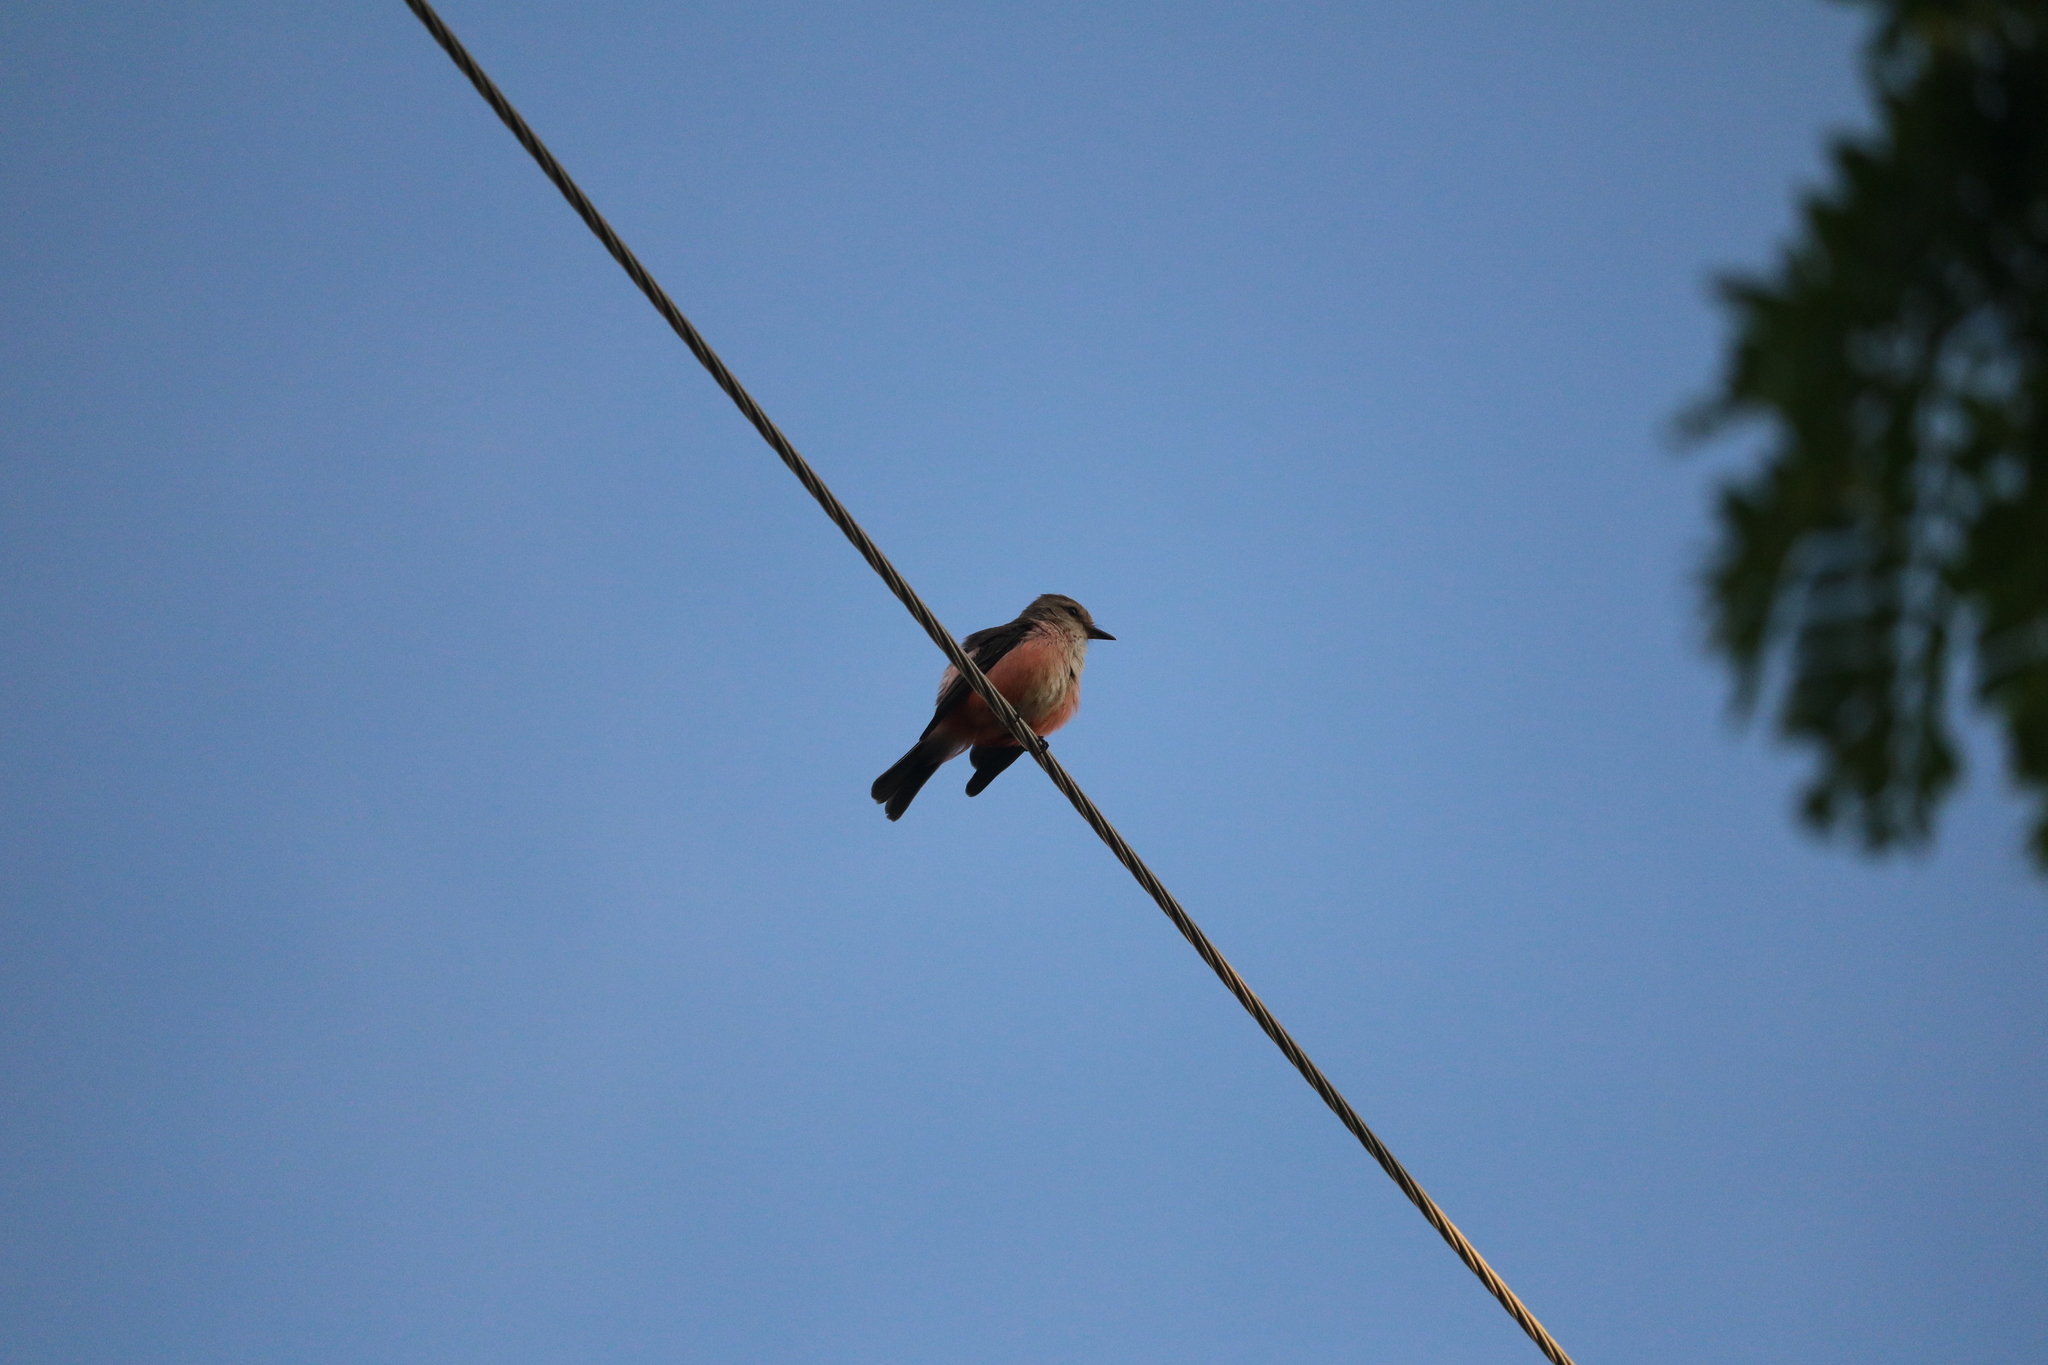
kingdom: Animalia
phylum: Chordata
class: Aves
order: Passeriformes
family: Tyrannidae
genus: Pyrocephalus
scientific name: Pyrocephalus rubinus
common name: Vermilion flycatcher
